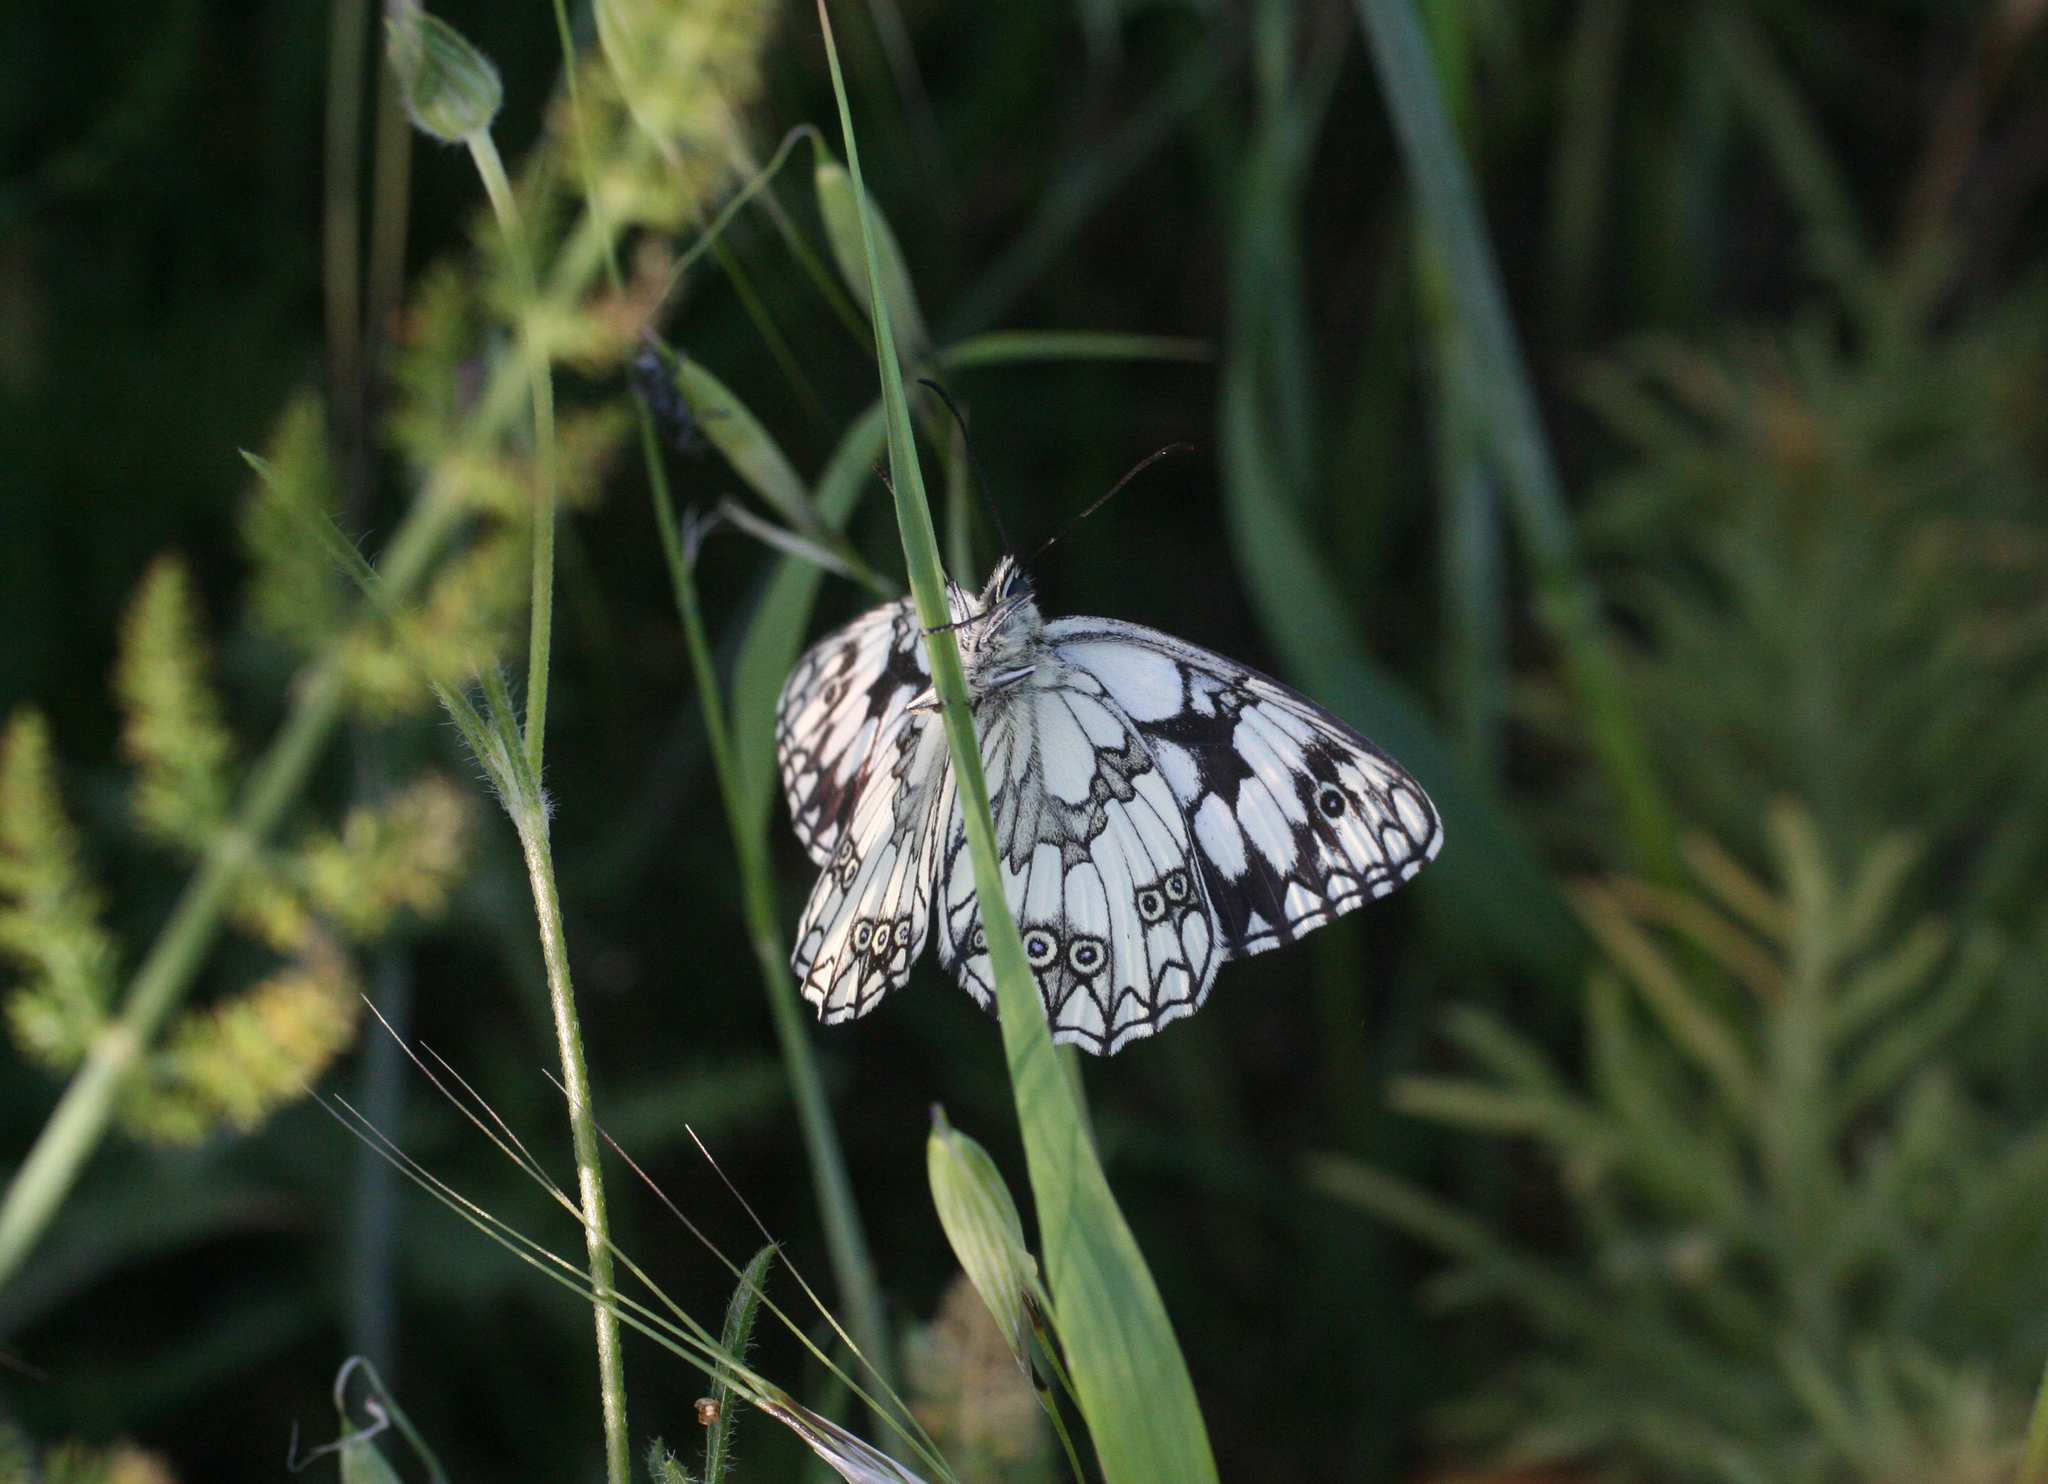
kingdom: Animalia
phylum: Arthropoda
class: Insecta
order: Lepidoptera
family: Nymphalidae
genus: Melanargia
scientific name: Melanargia lucasi
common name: Moroccan marbled white
